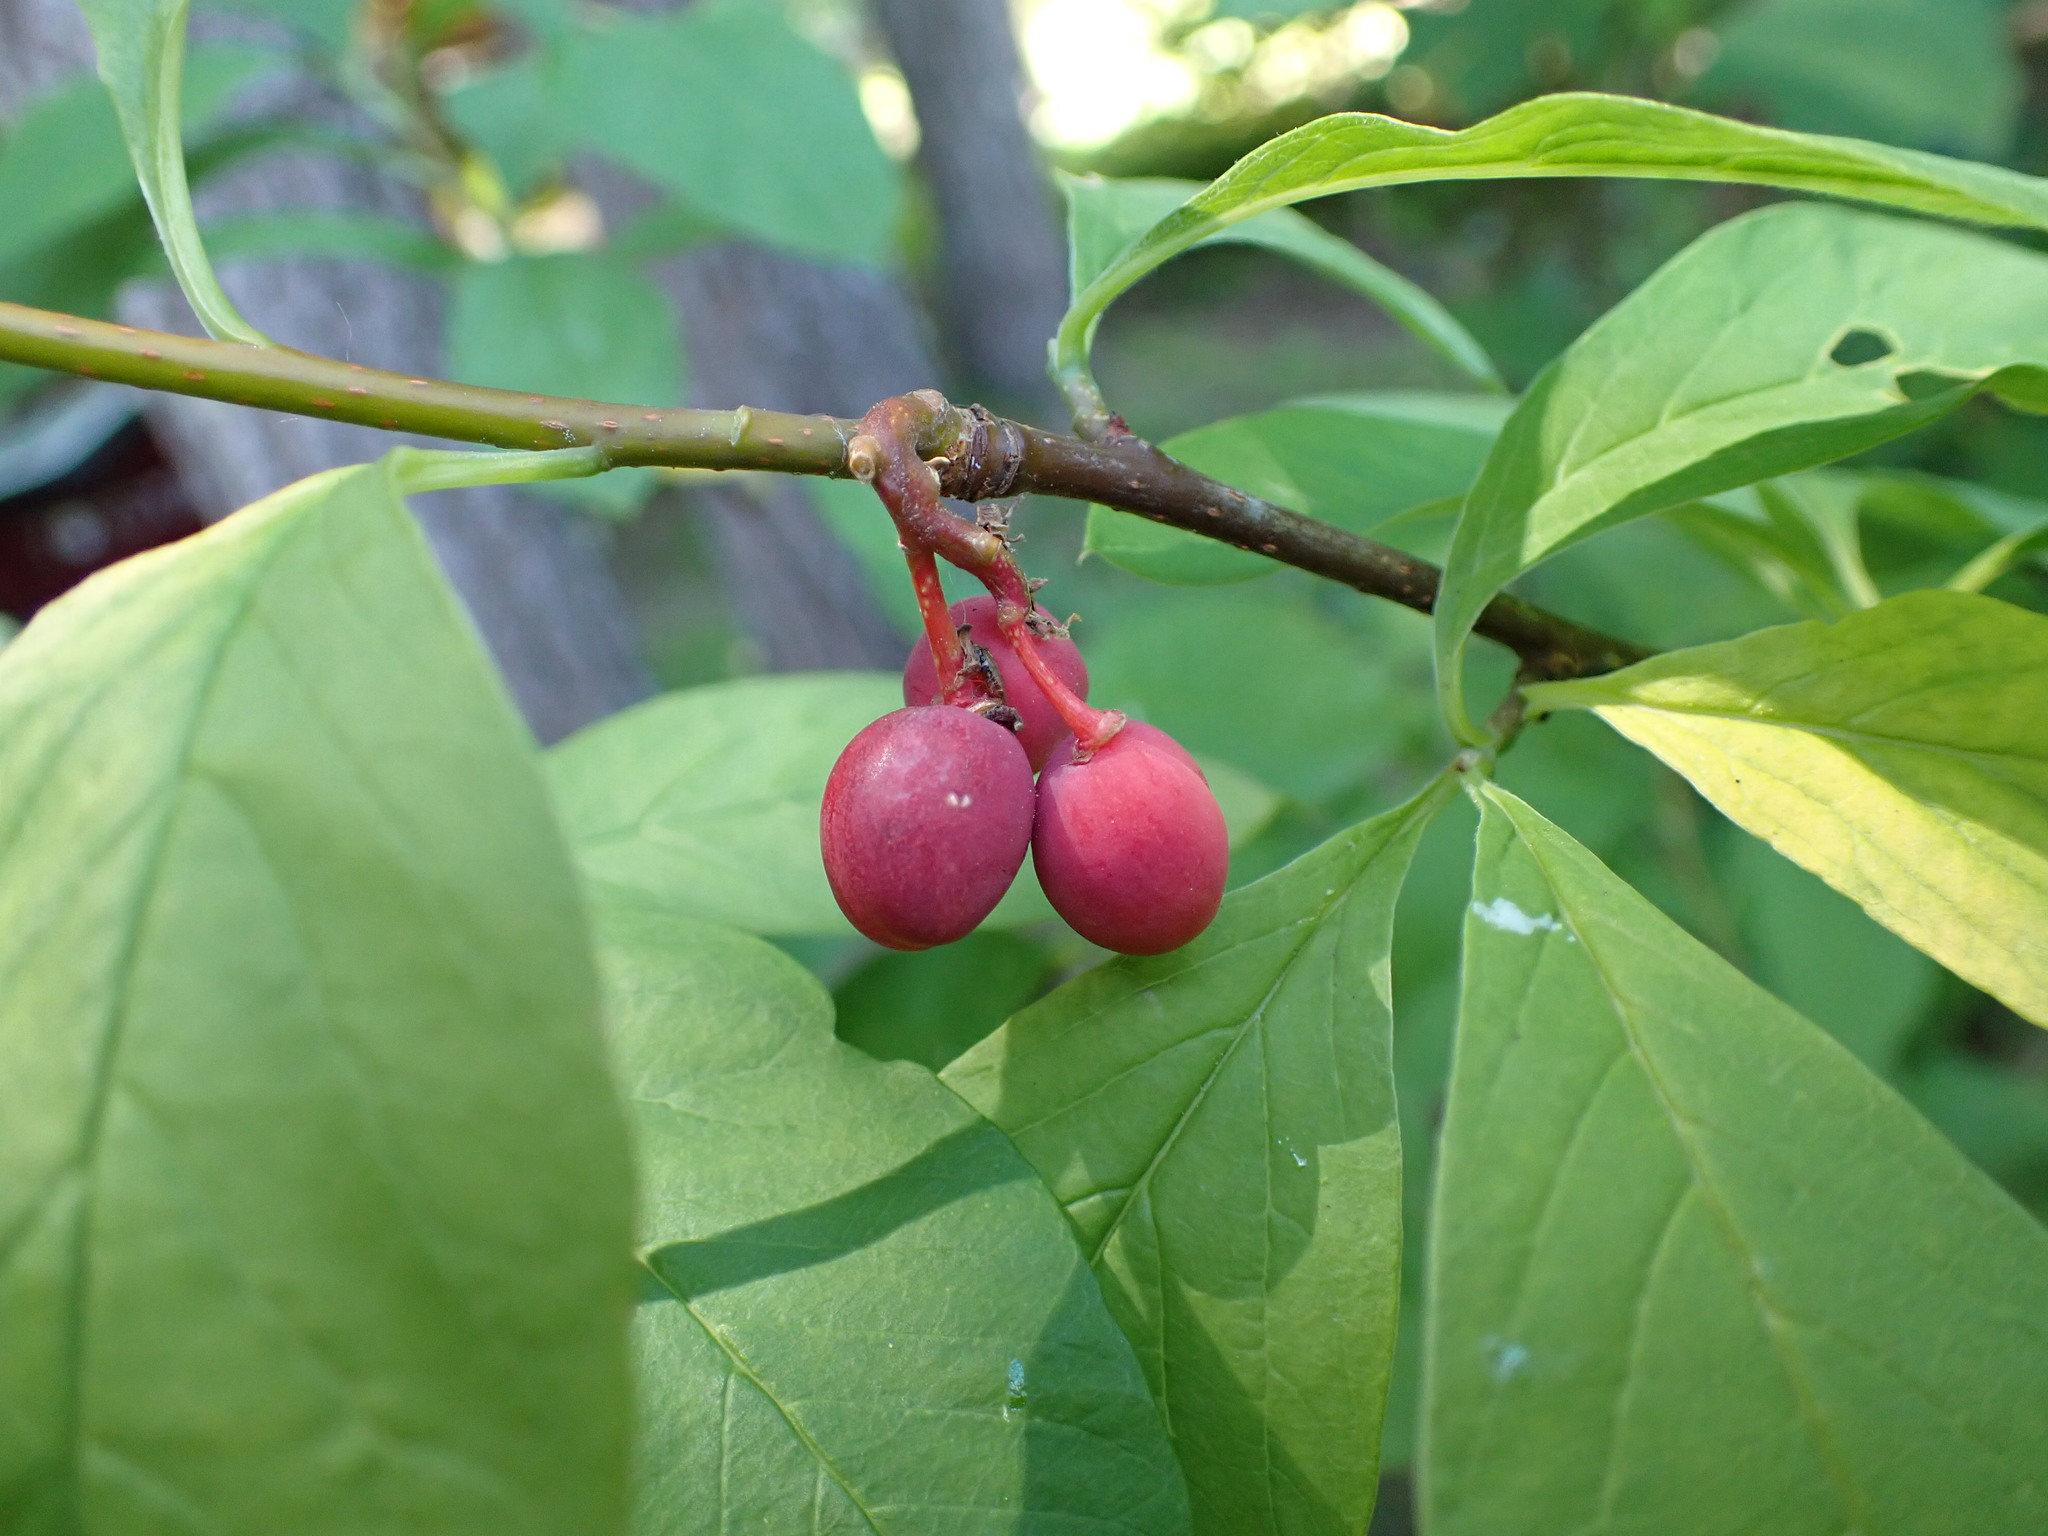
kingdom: Plantae
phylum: Tracheophyta
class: Magnoliopsida
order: Rosales
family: Rosaceae
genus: Oemleria
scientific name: Oemleria cerasiformis
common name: Osoberry
